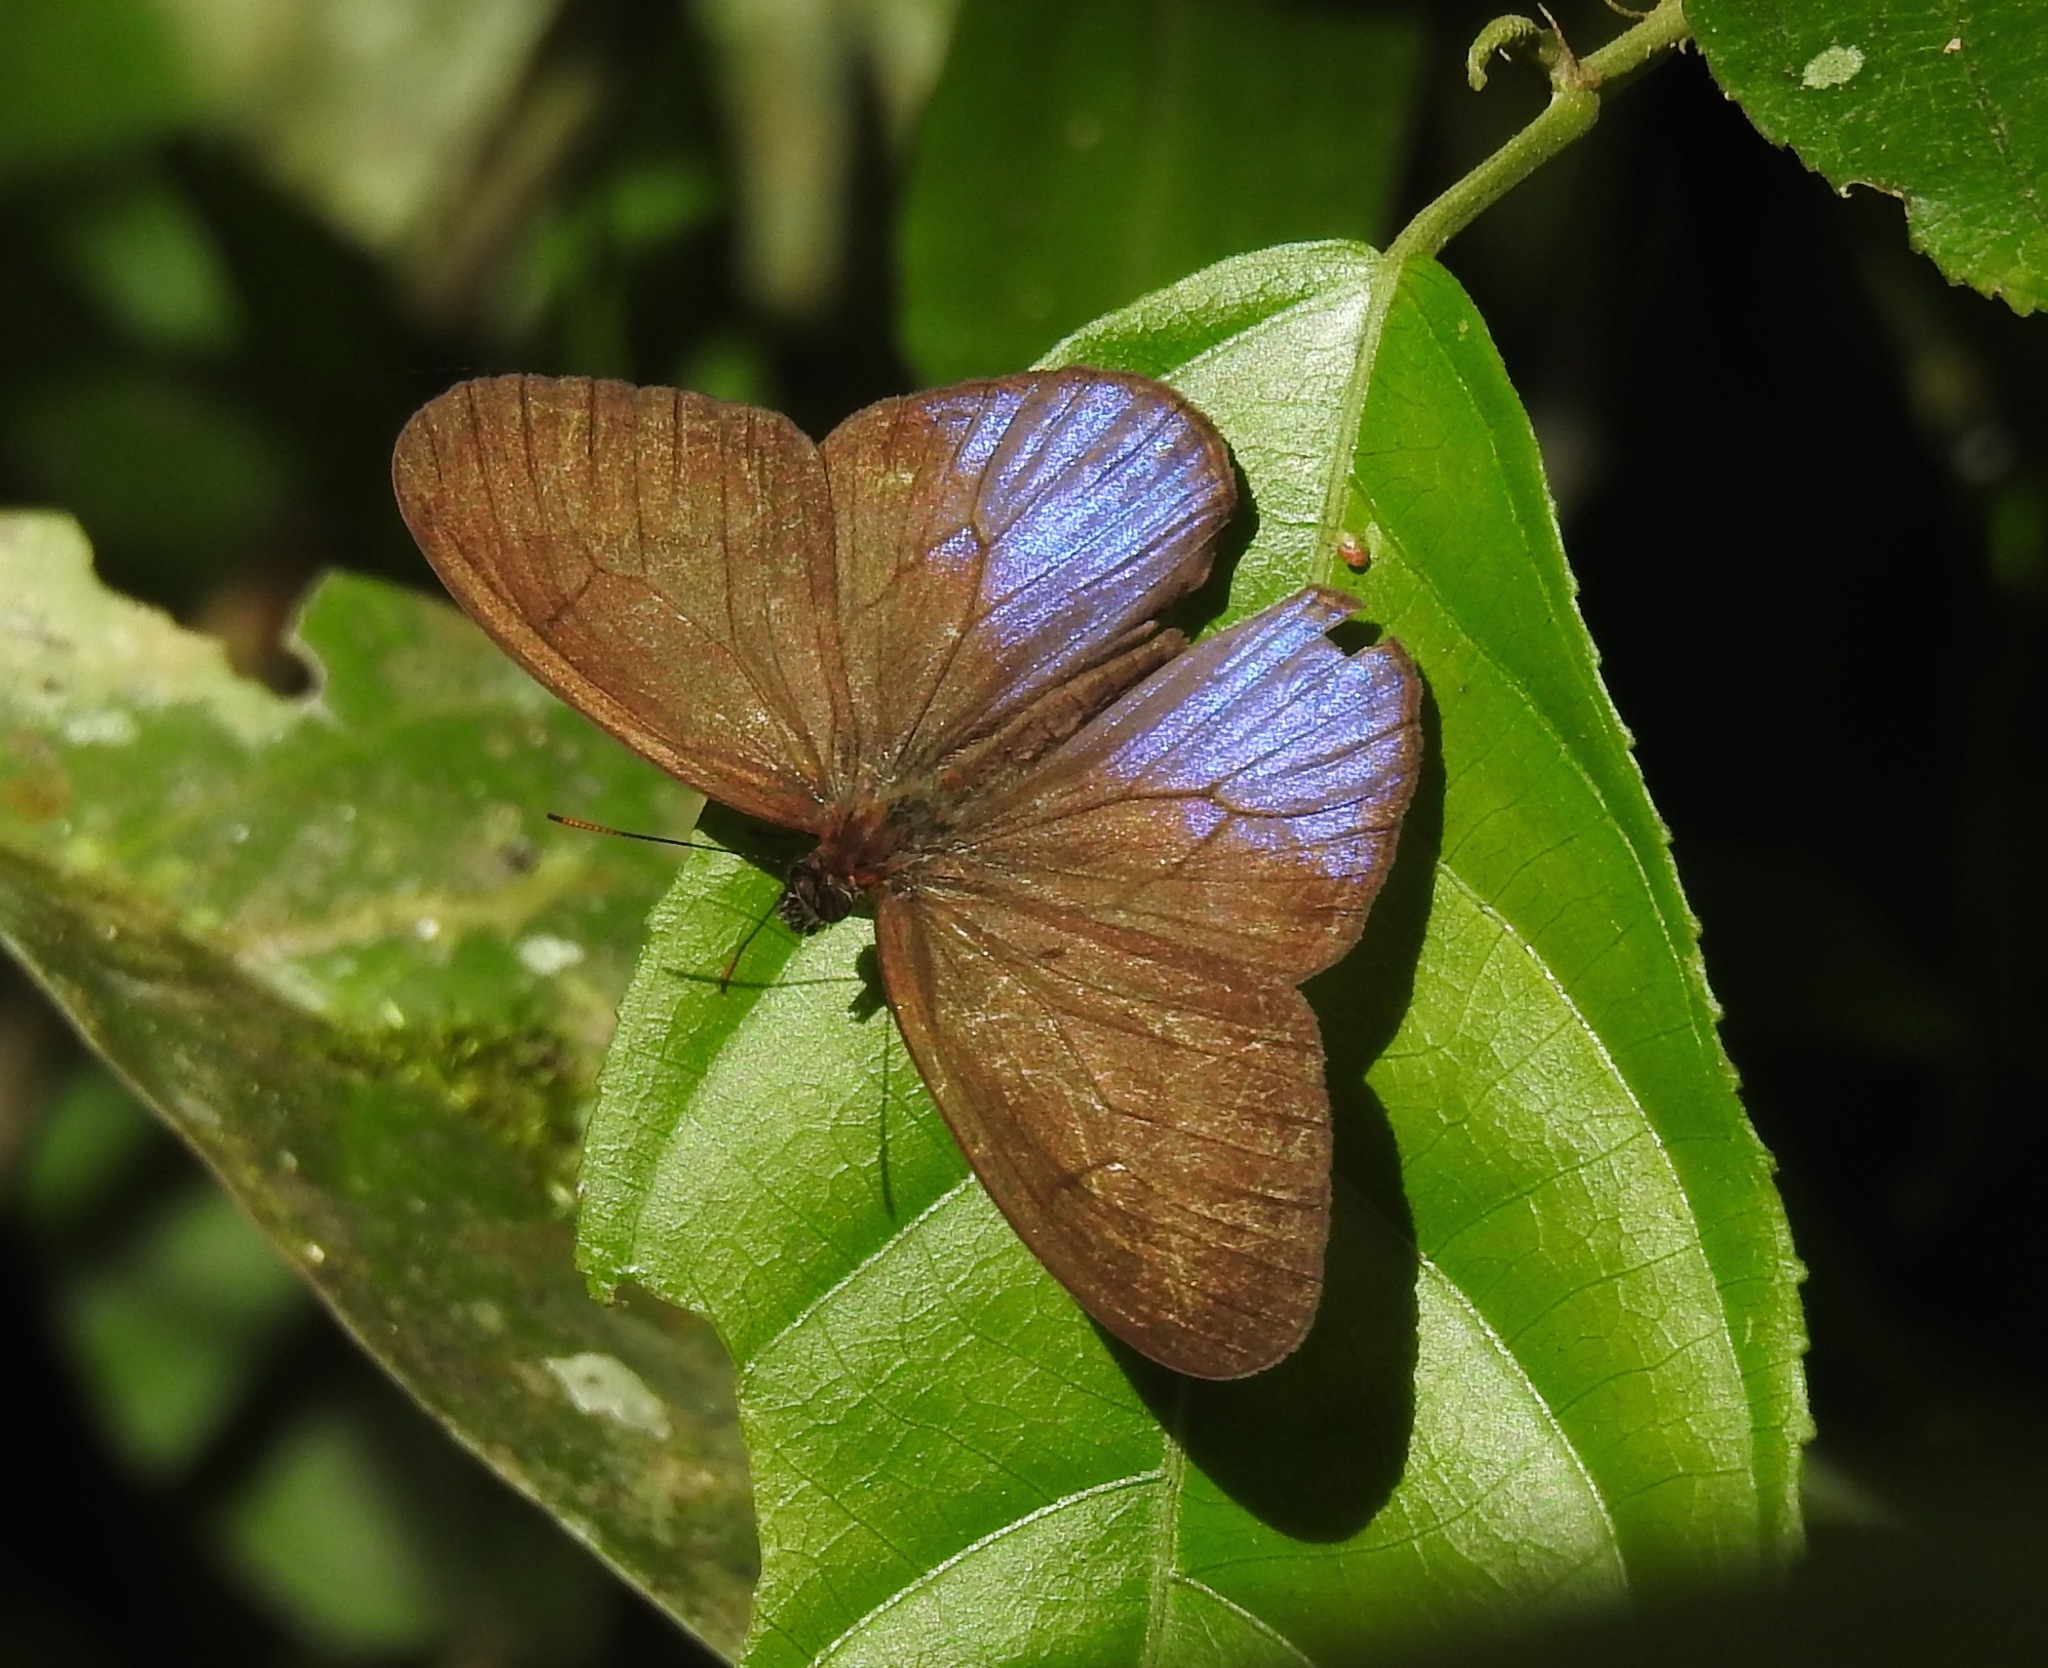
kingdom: Animalia
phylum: Arthropoda
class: Insecta
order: Lepidoptera
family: Nymphalidae
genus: Amiga
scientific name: Amiga arnaca
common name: Blue-topped satyr
